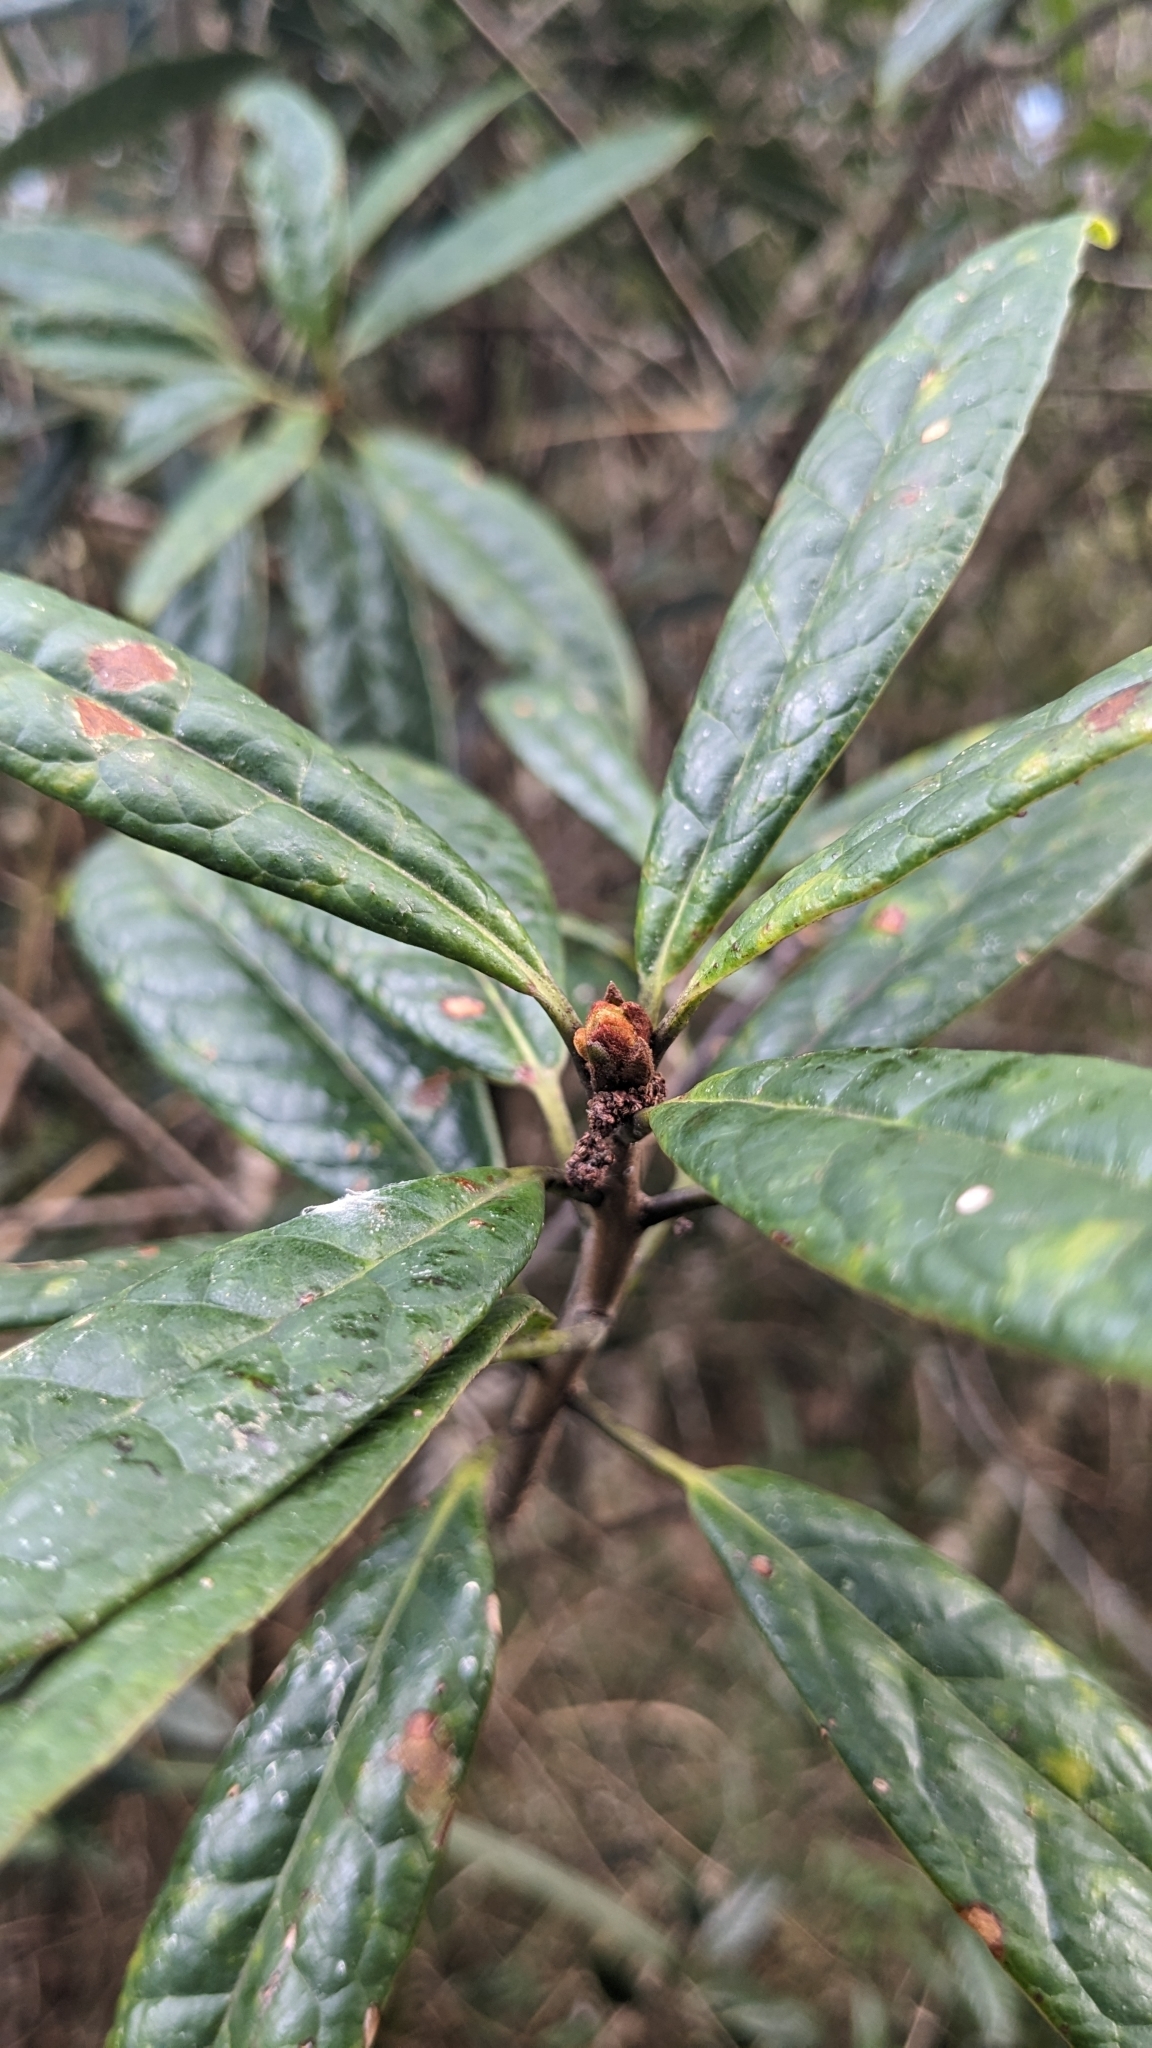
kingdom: Plantae
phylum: Tracheophyta
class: Magnoliopsida
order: Ericales
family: Symplocaceae
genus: Symplocos
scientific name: Symplocos stellaris
